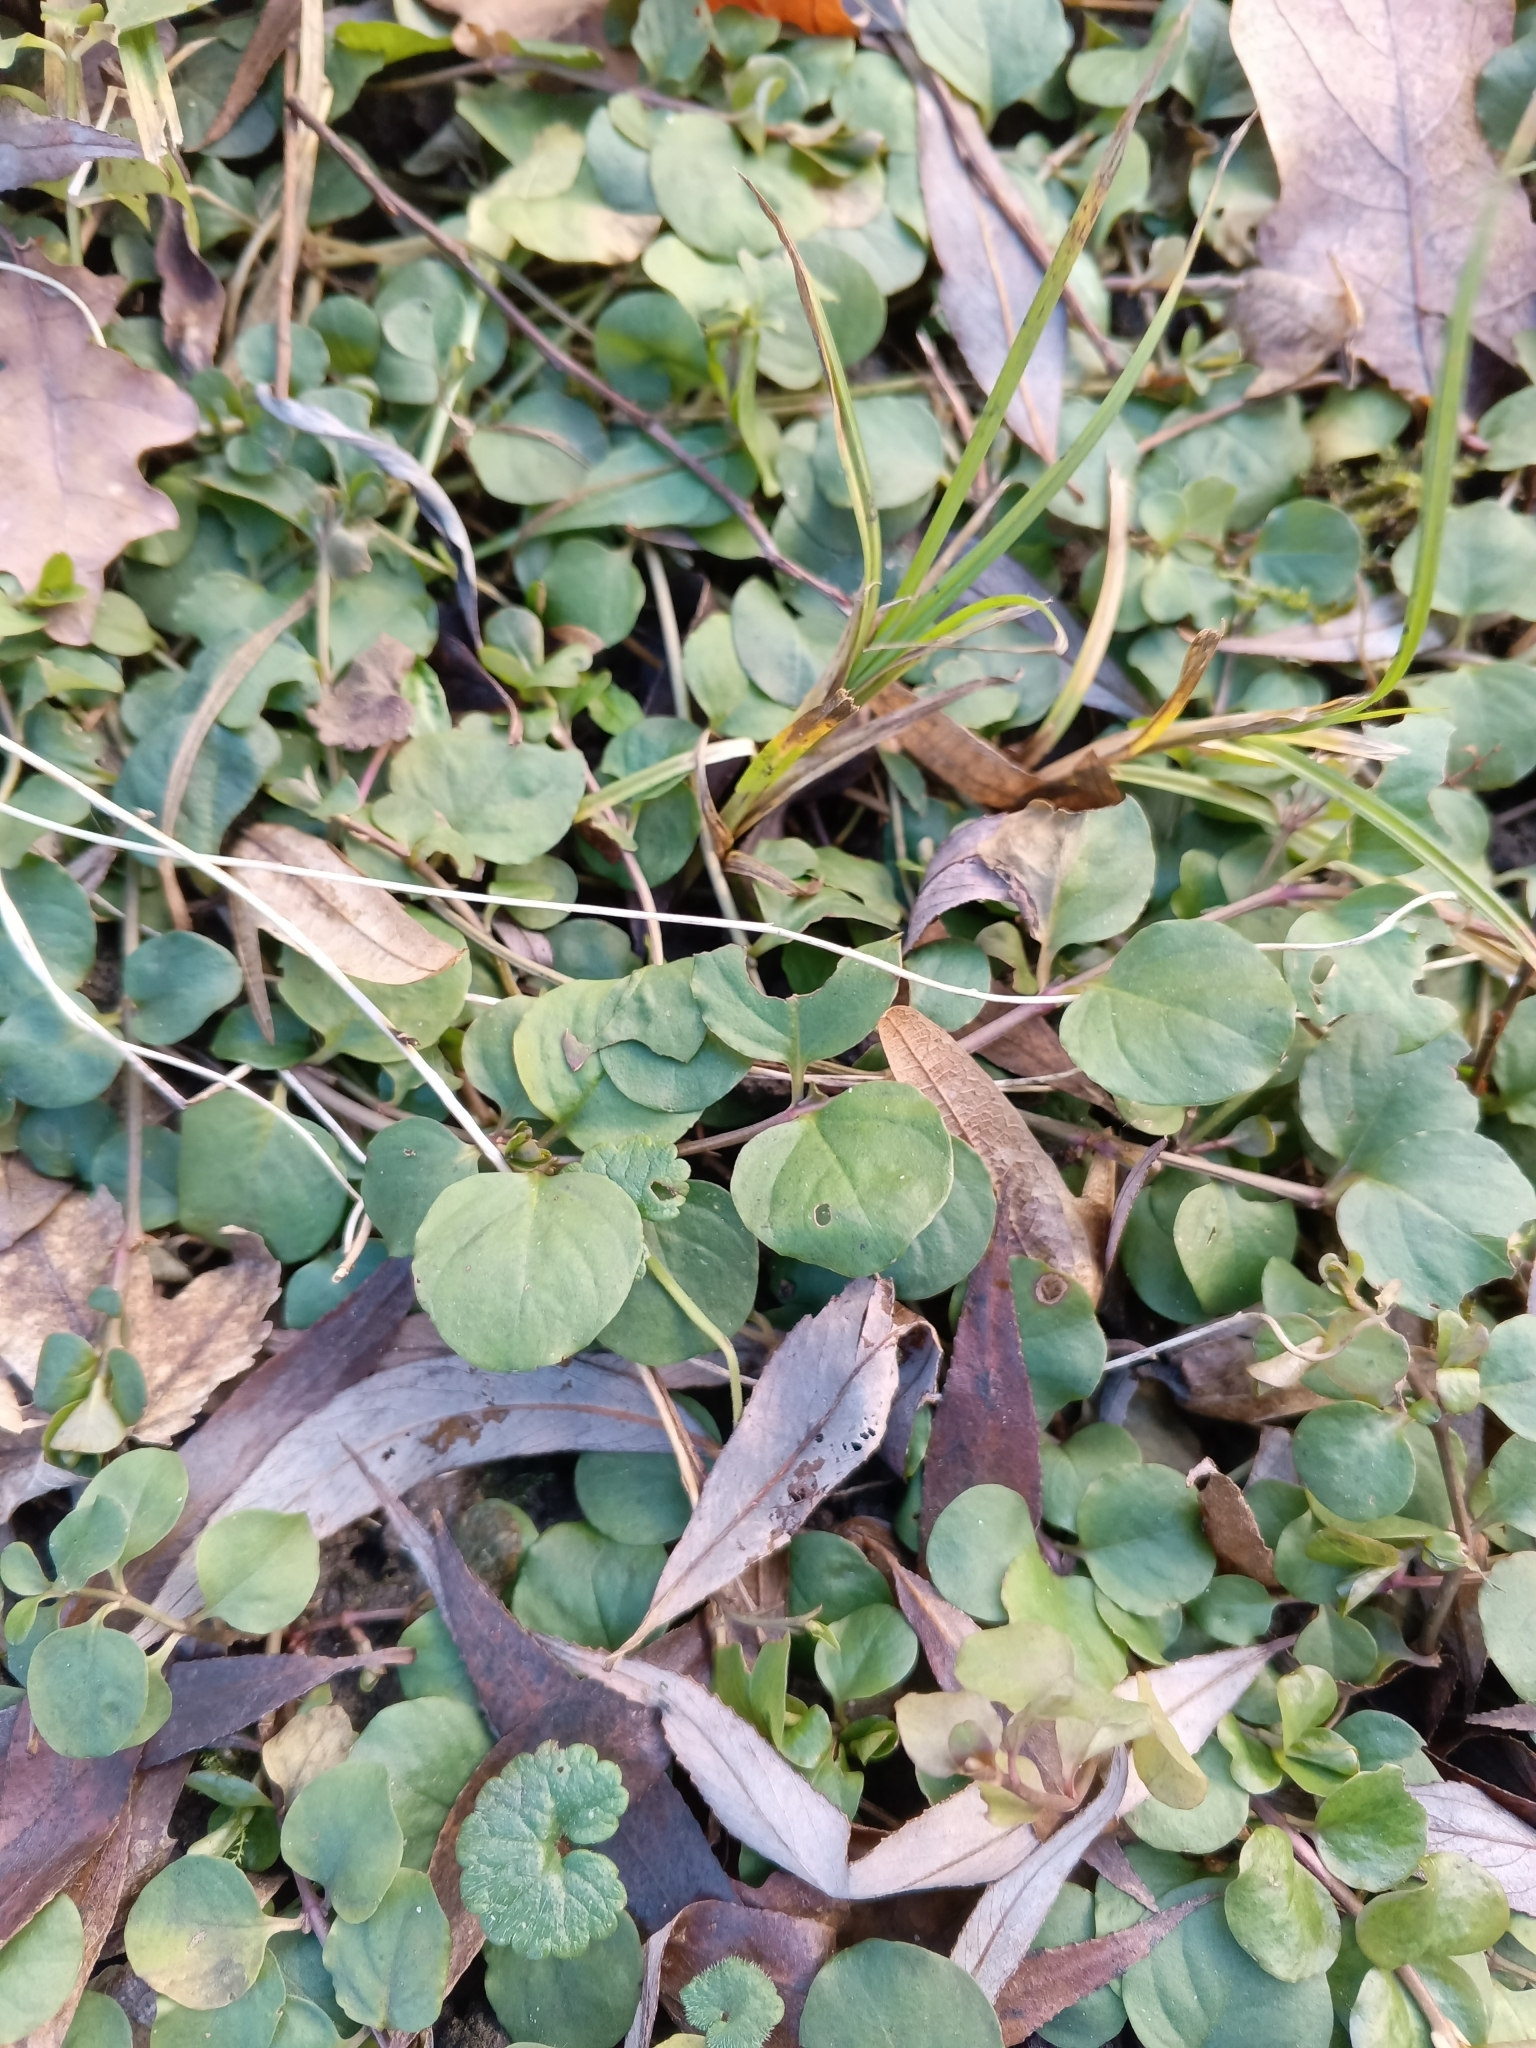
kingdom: Plantae
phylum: Tracheophyta
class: Magnoliopsida
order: Ericales
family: Primulaceae
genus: Lysimachia
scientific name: Lysimachia nummularia
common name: Moneywort
